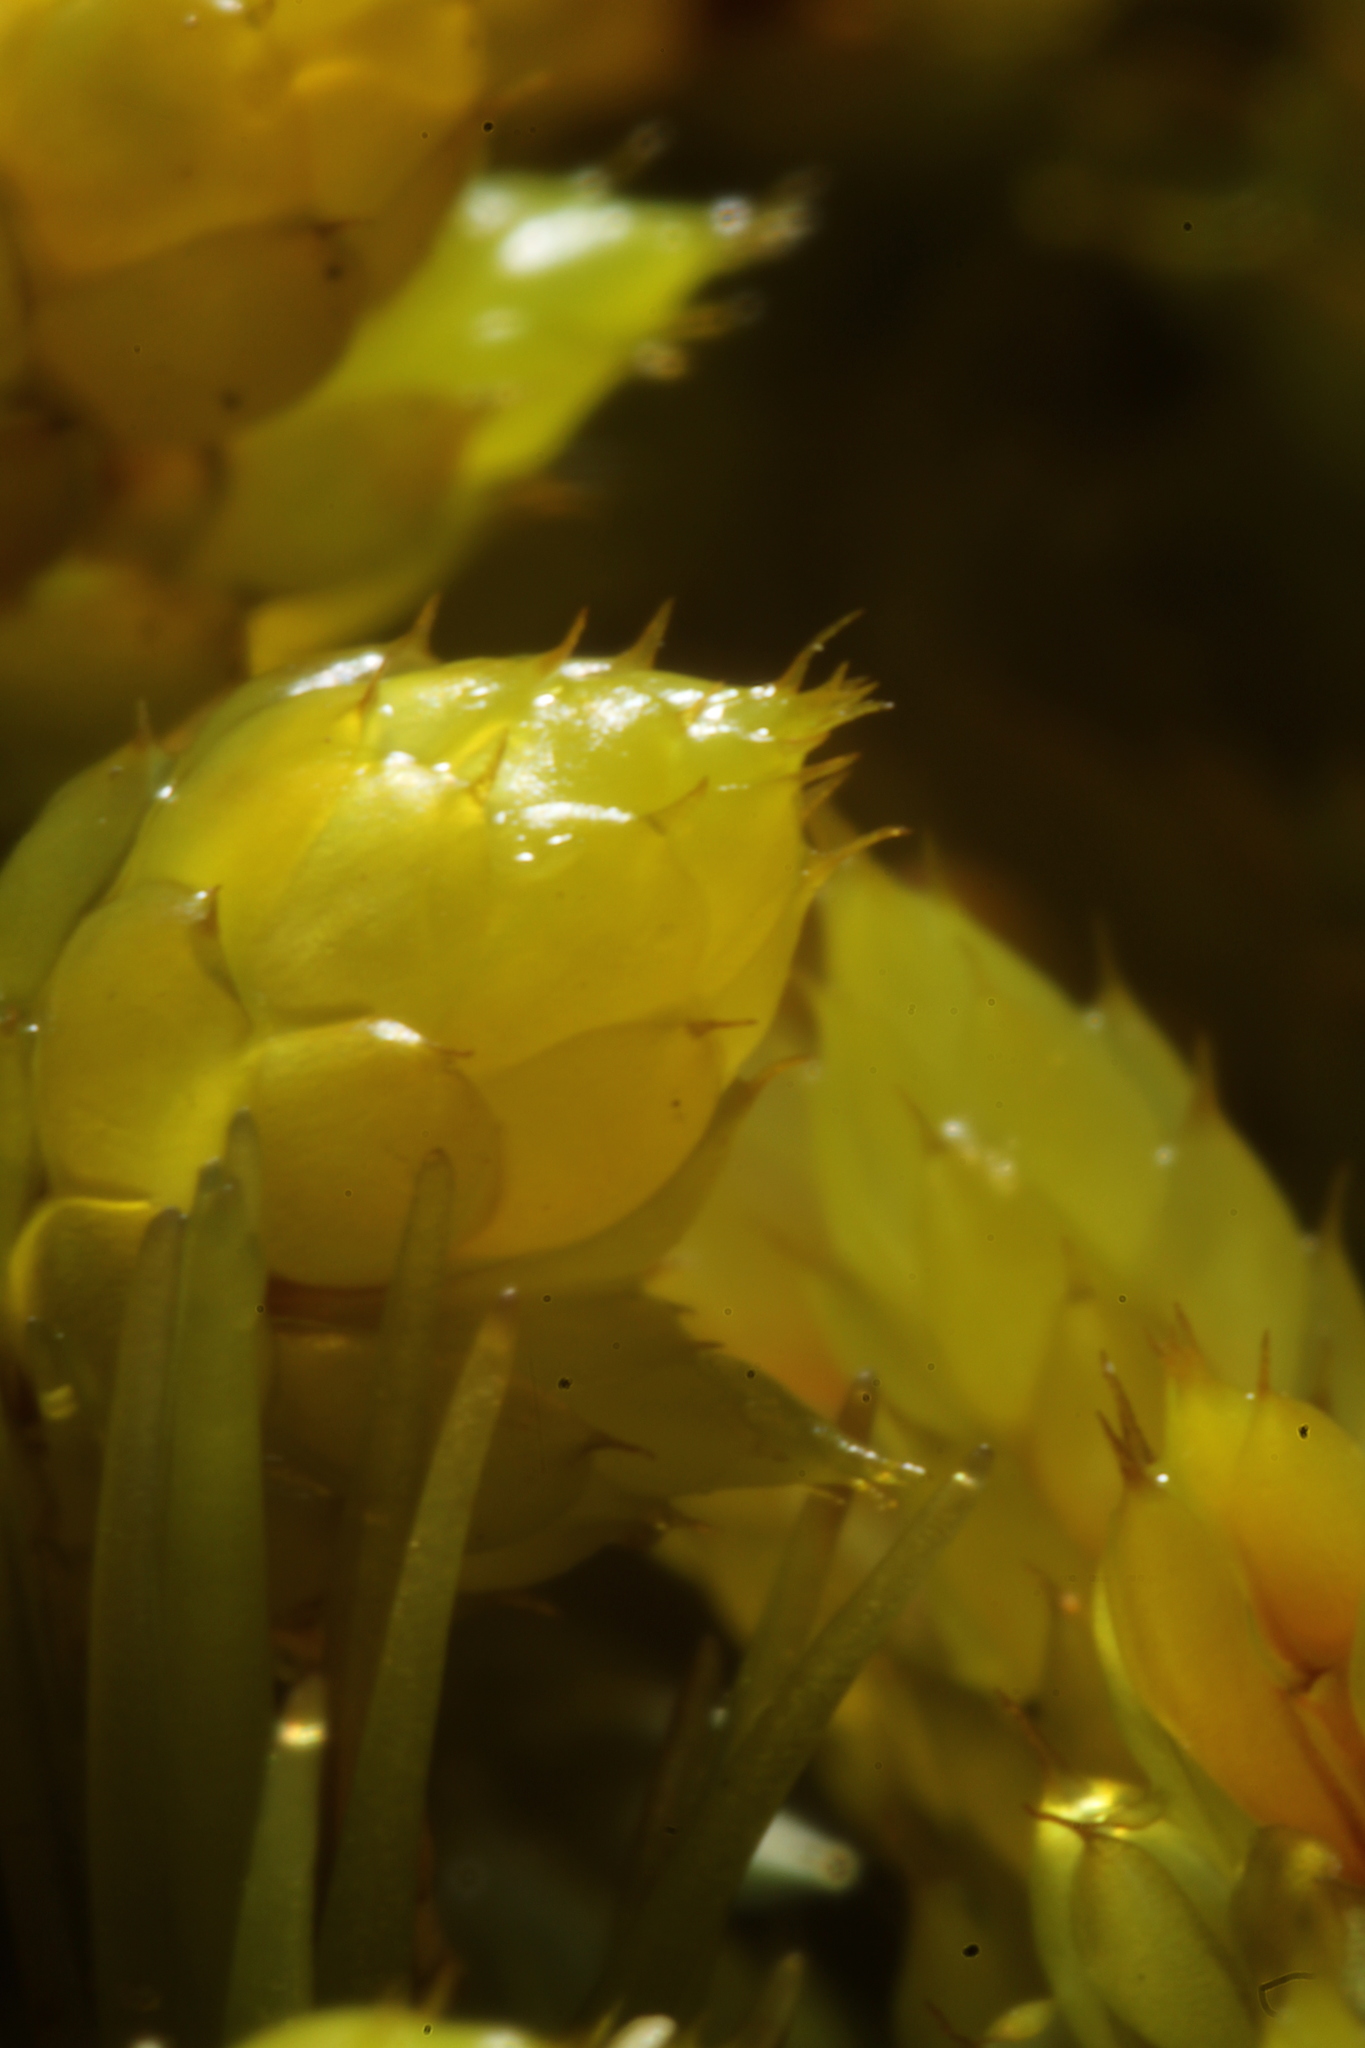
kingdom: Plantae
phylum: Bryophyta
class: Bryopsida
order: Hedwigiales
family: Hedwigiaceae
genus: Rhacocarpus
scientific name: Rhacocarpus purpurascens
